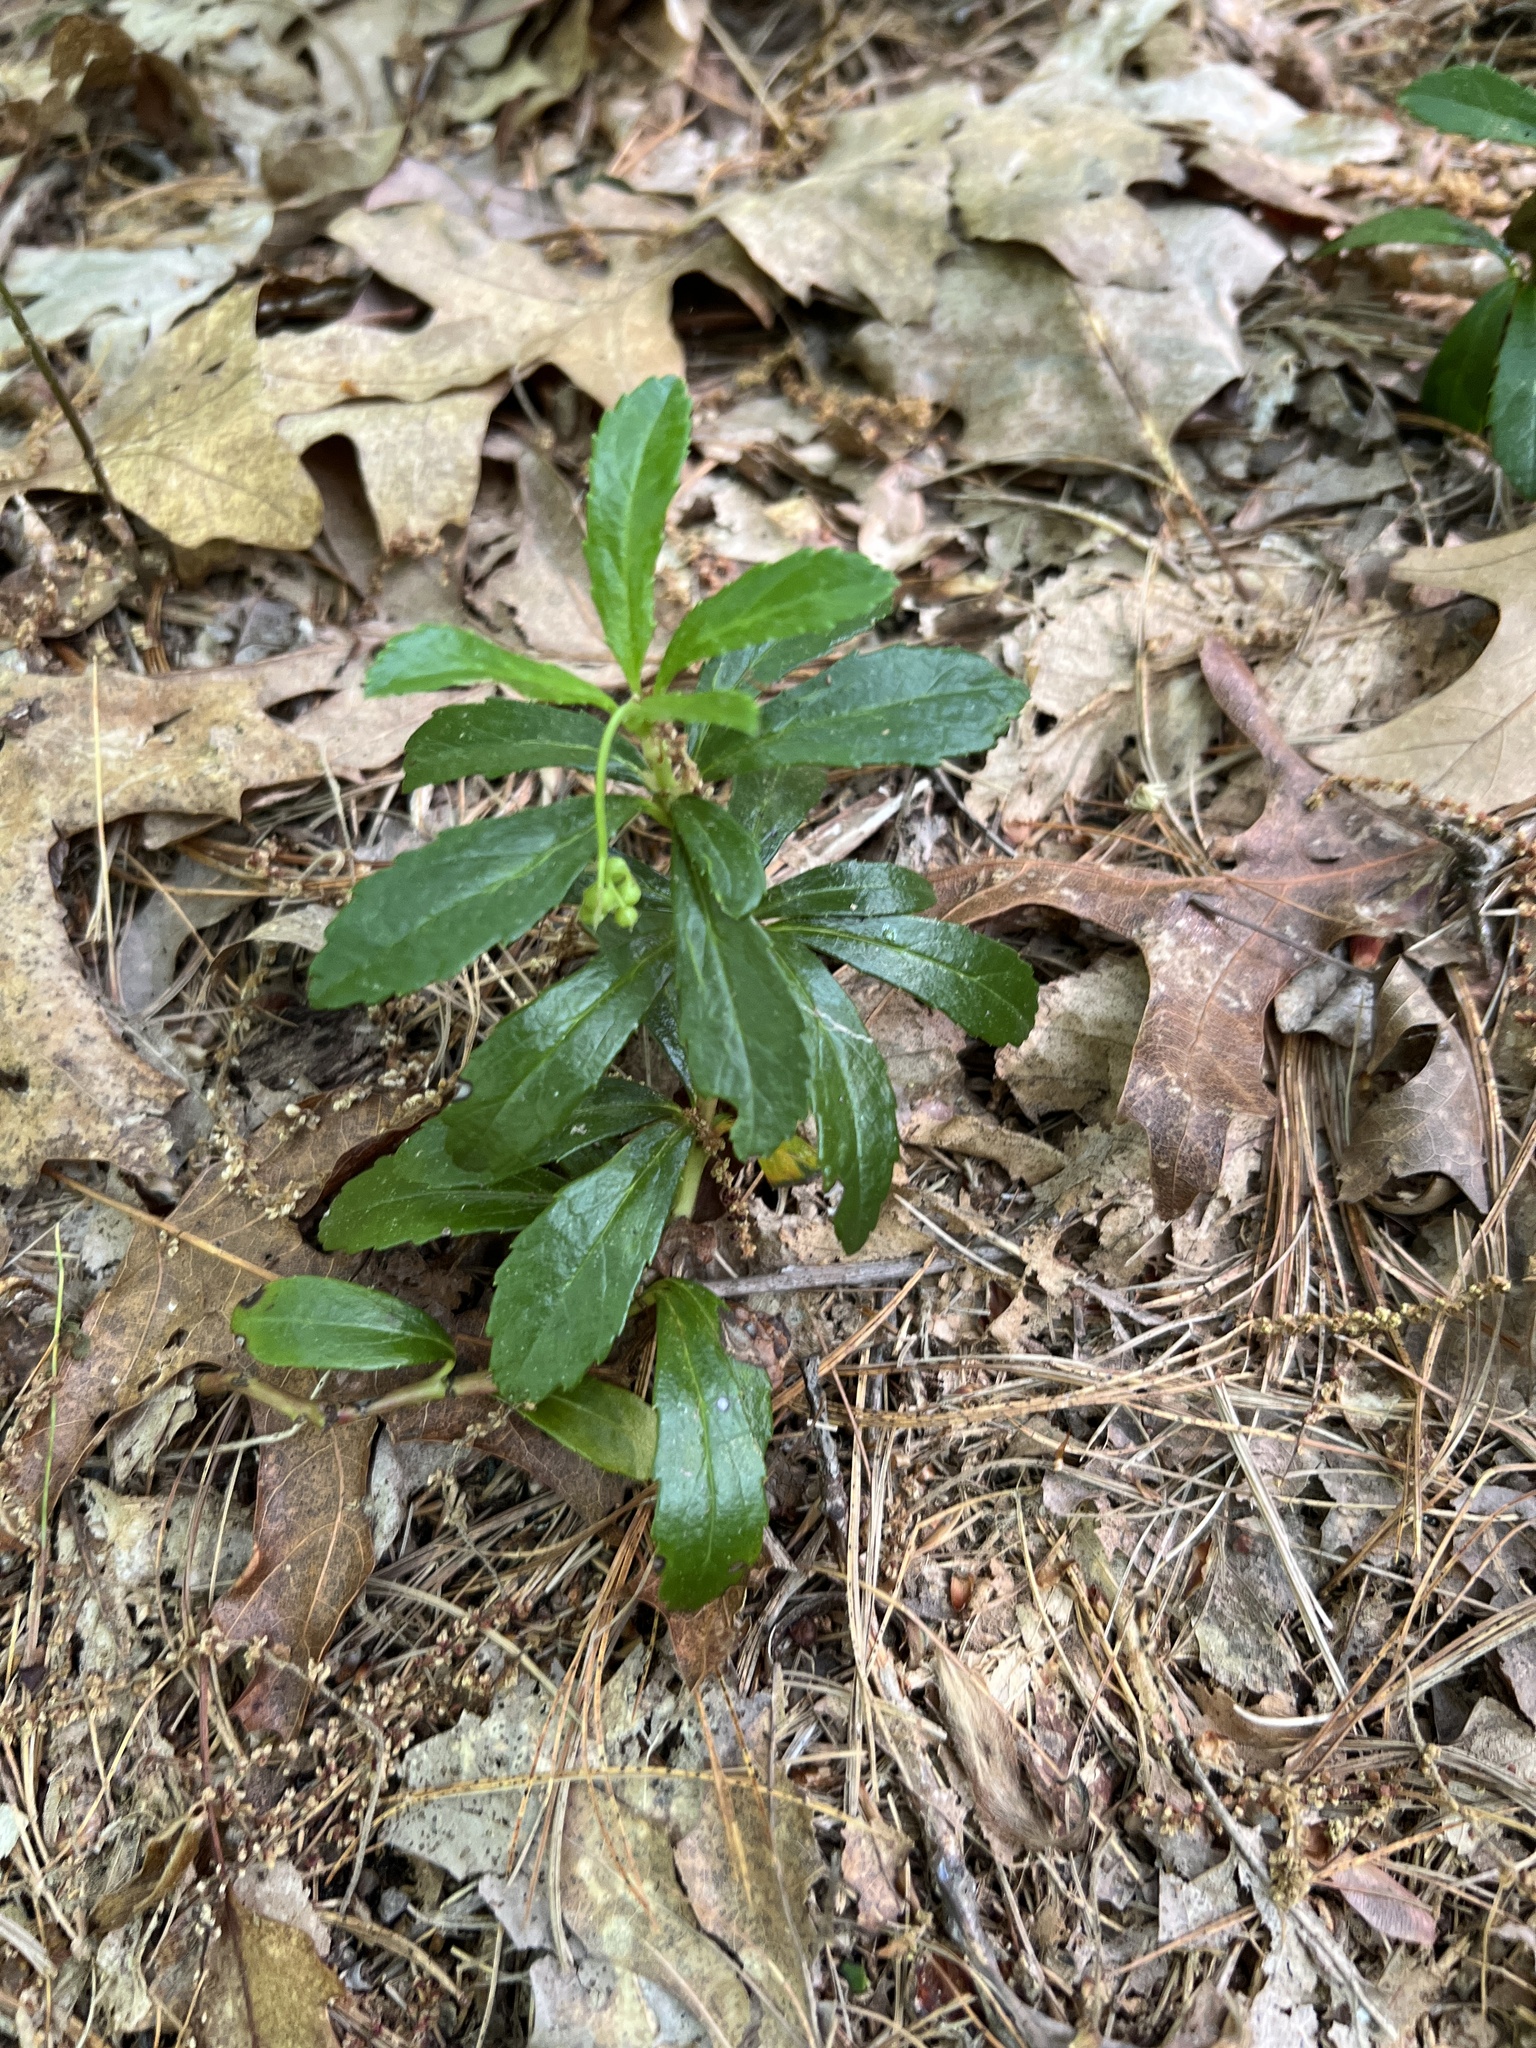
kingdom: Plantae
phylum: Tracheophyta
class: Magnoliopsida
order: Ericales
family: Ericaceae
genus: Chimaphila
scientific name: Chimaphila umbellata
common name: Pipsissewa
